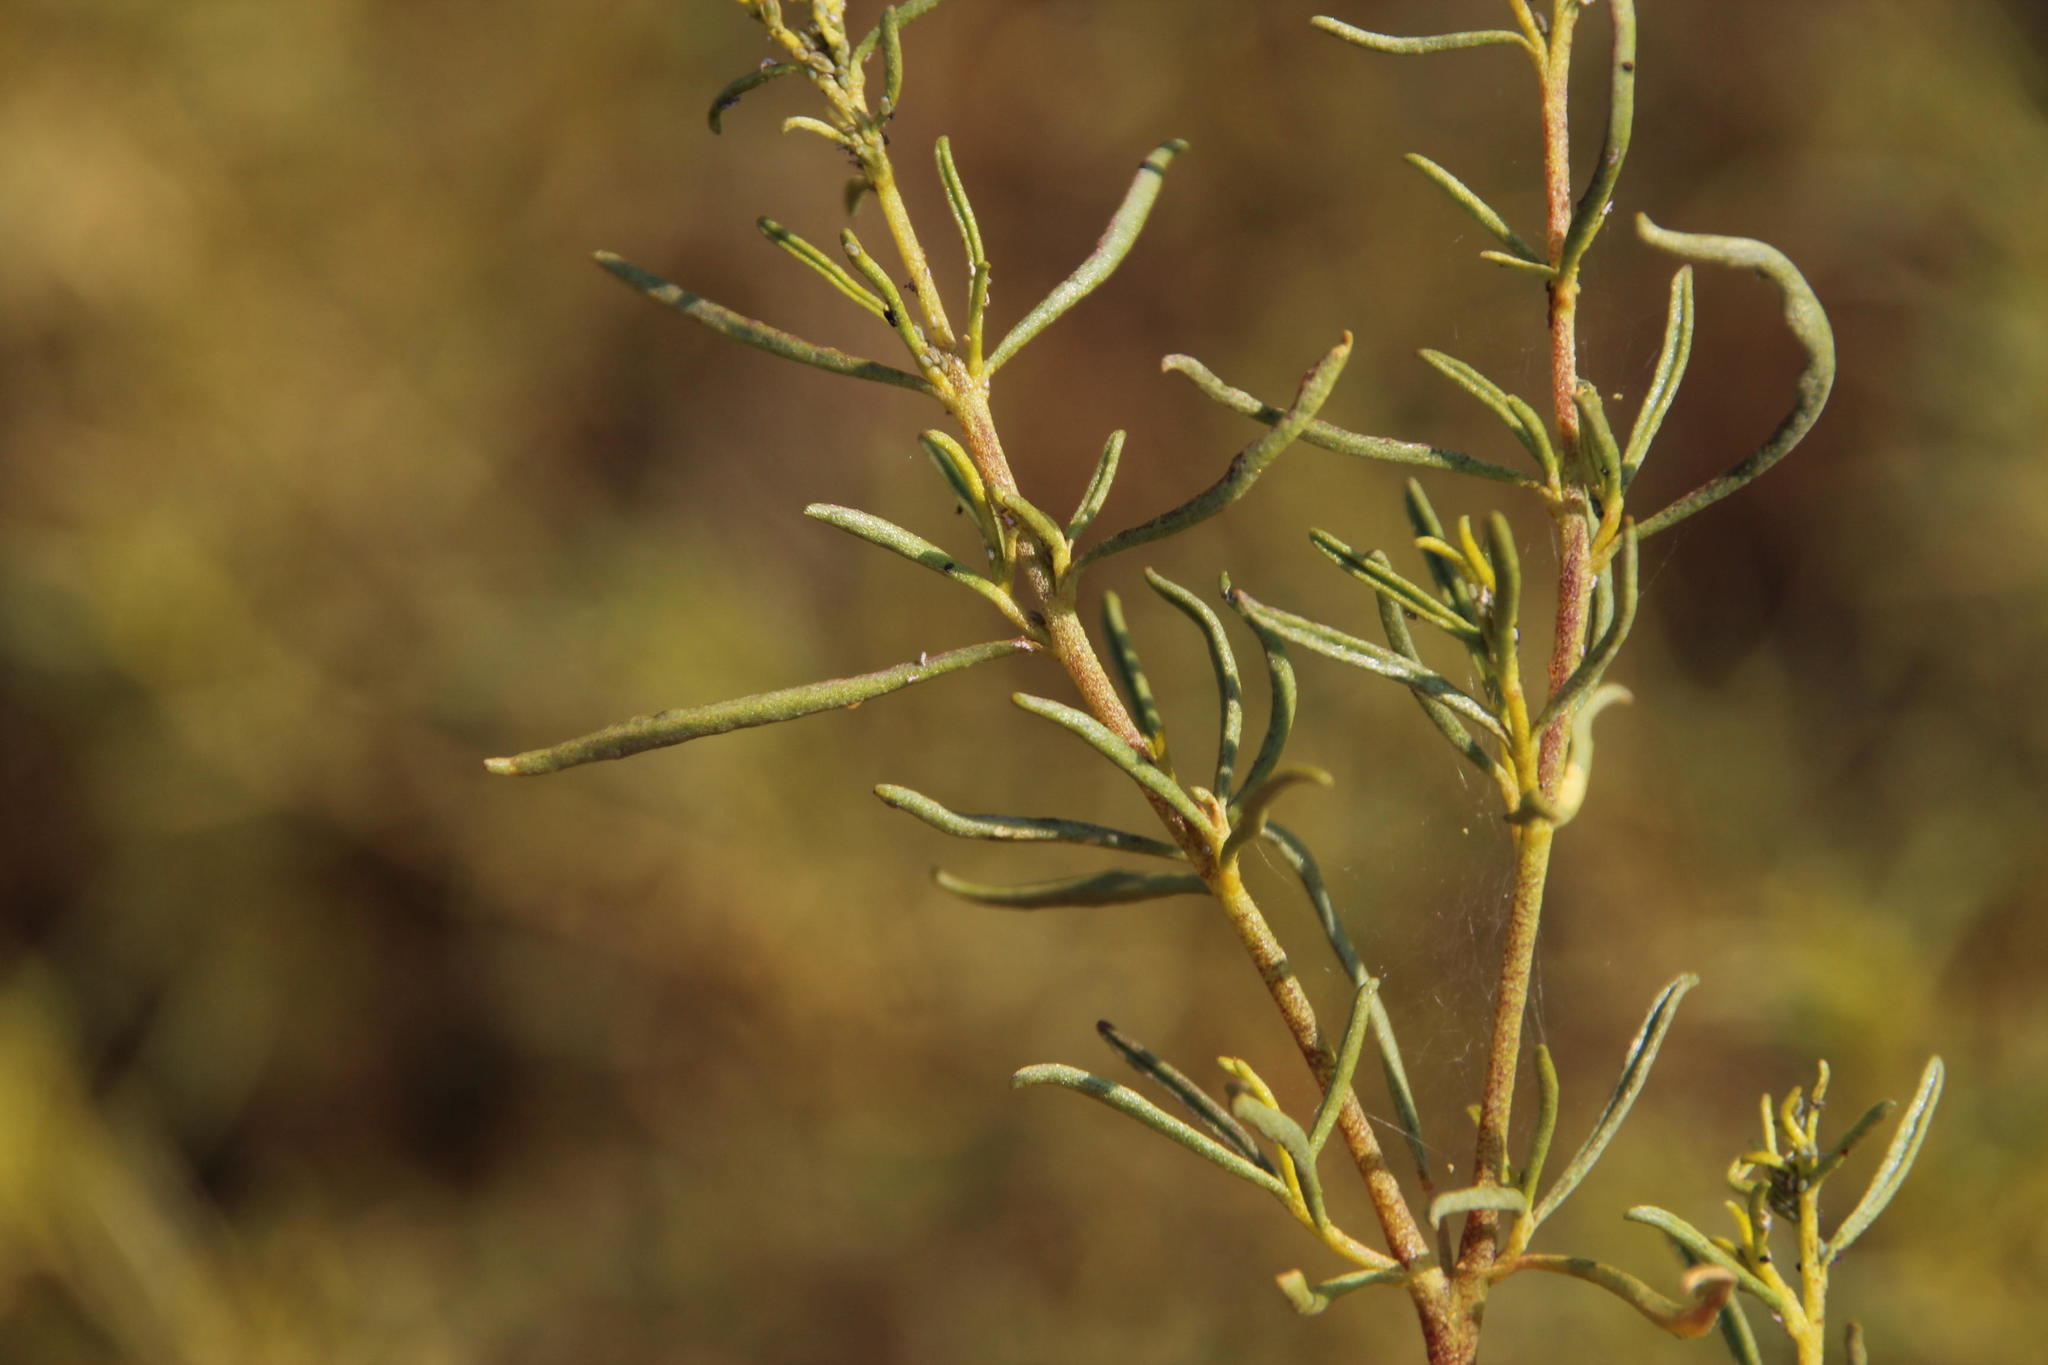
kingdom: Plantae
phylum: Tracheophyta
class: Magnoliopsida
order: Caryophyllales
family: Aizoaceae
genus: Aizoon
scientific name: Aizoon africanum
